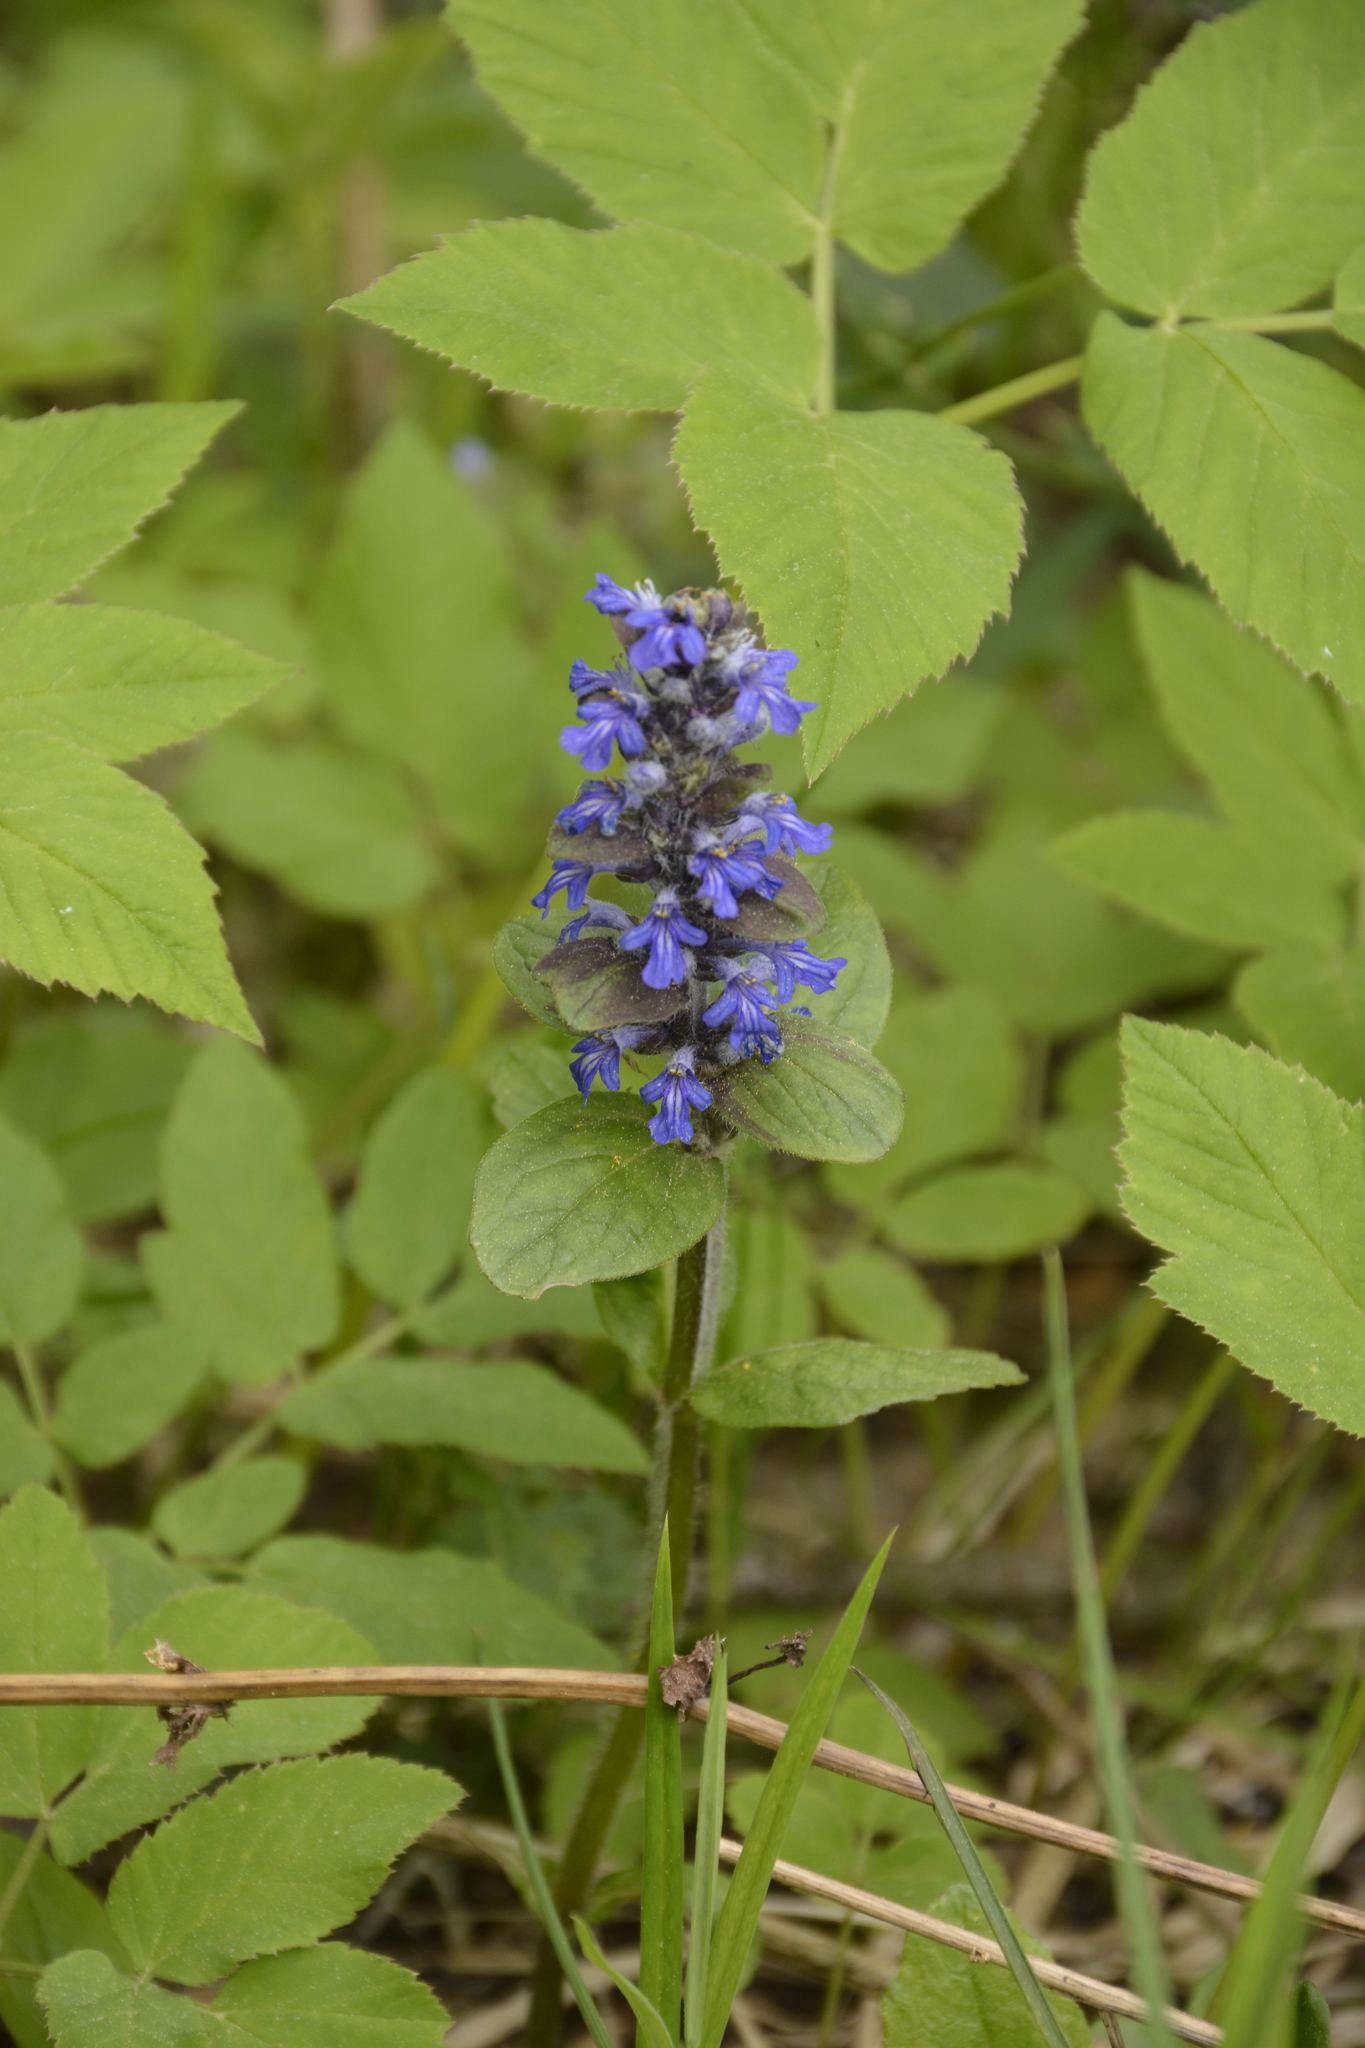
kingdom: Plantae
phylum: Tracheophyta
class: Magnoliopsida
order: Lamiales
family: Lamiaceae
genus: Ajuga
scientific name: Ajuga reptans
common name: Bugle
